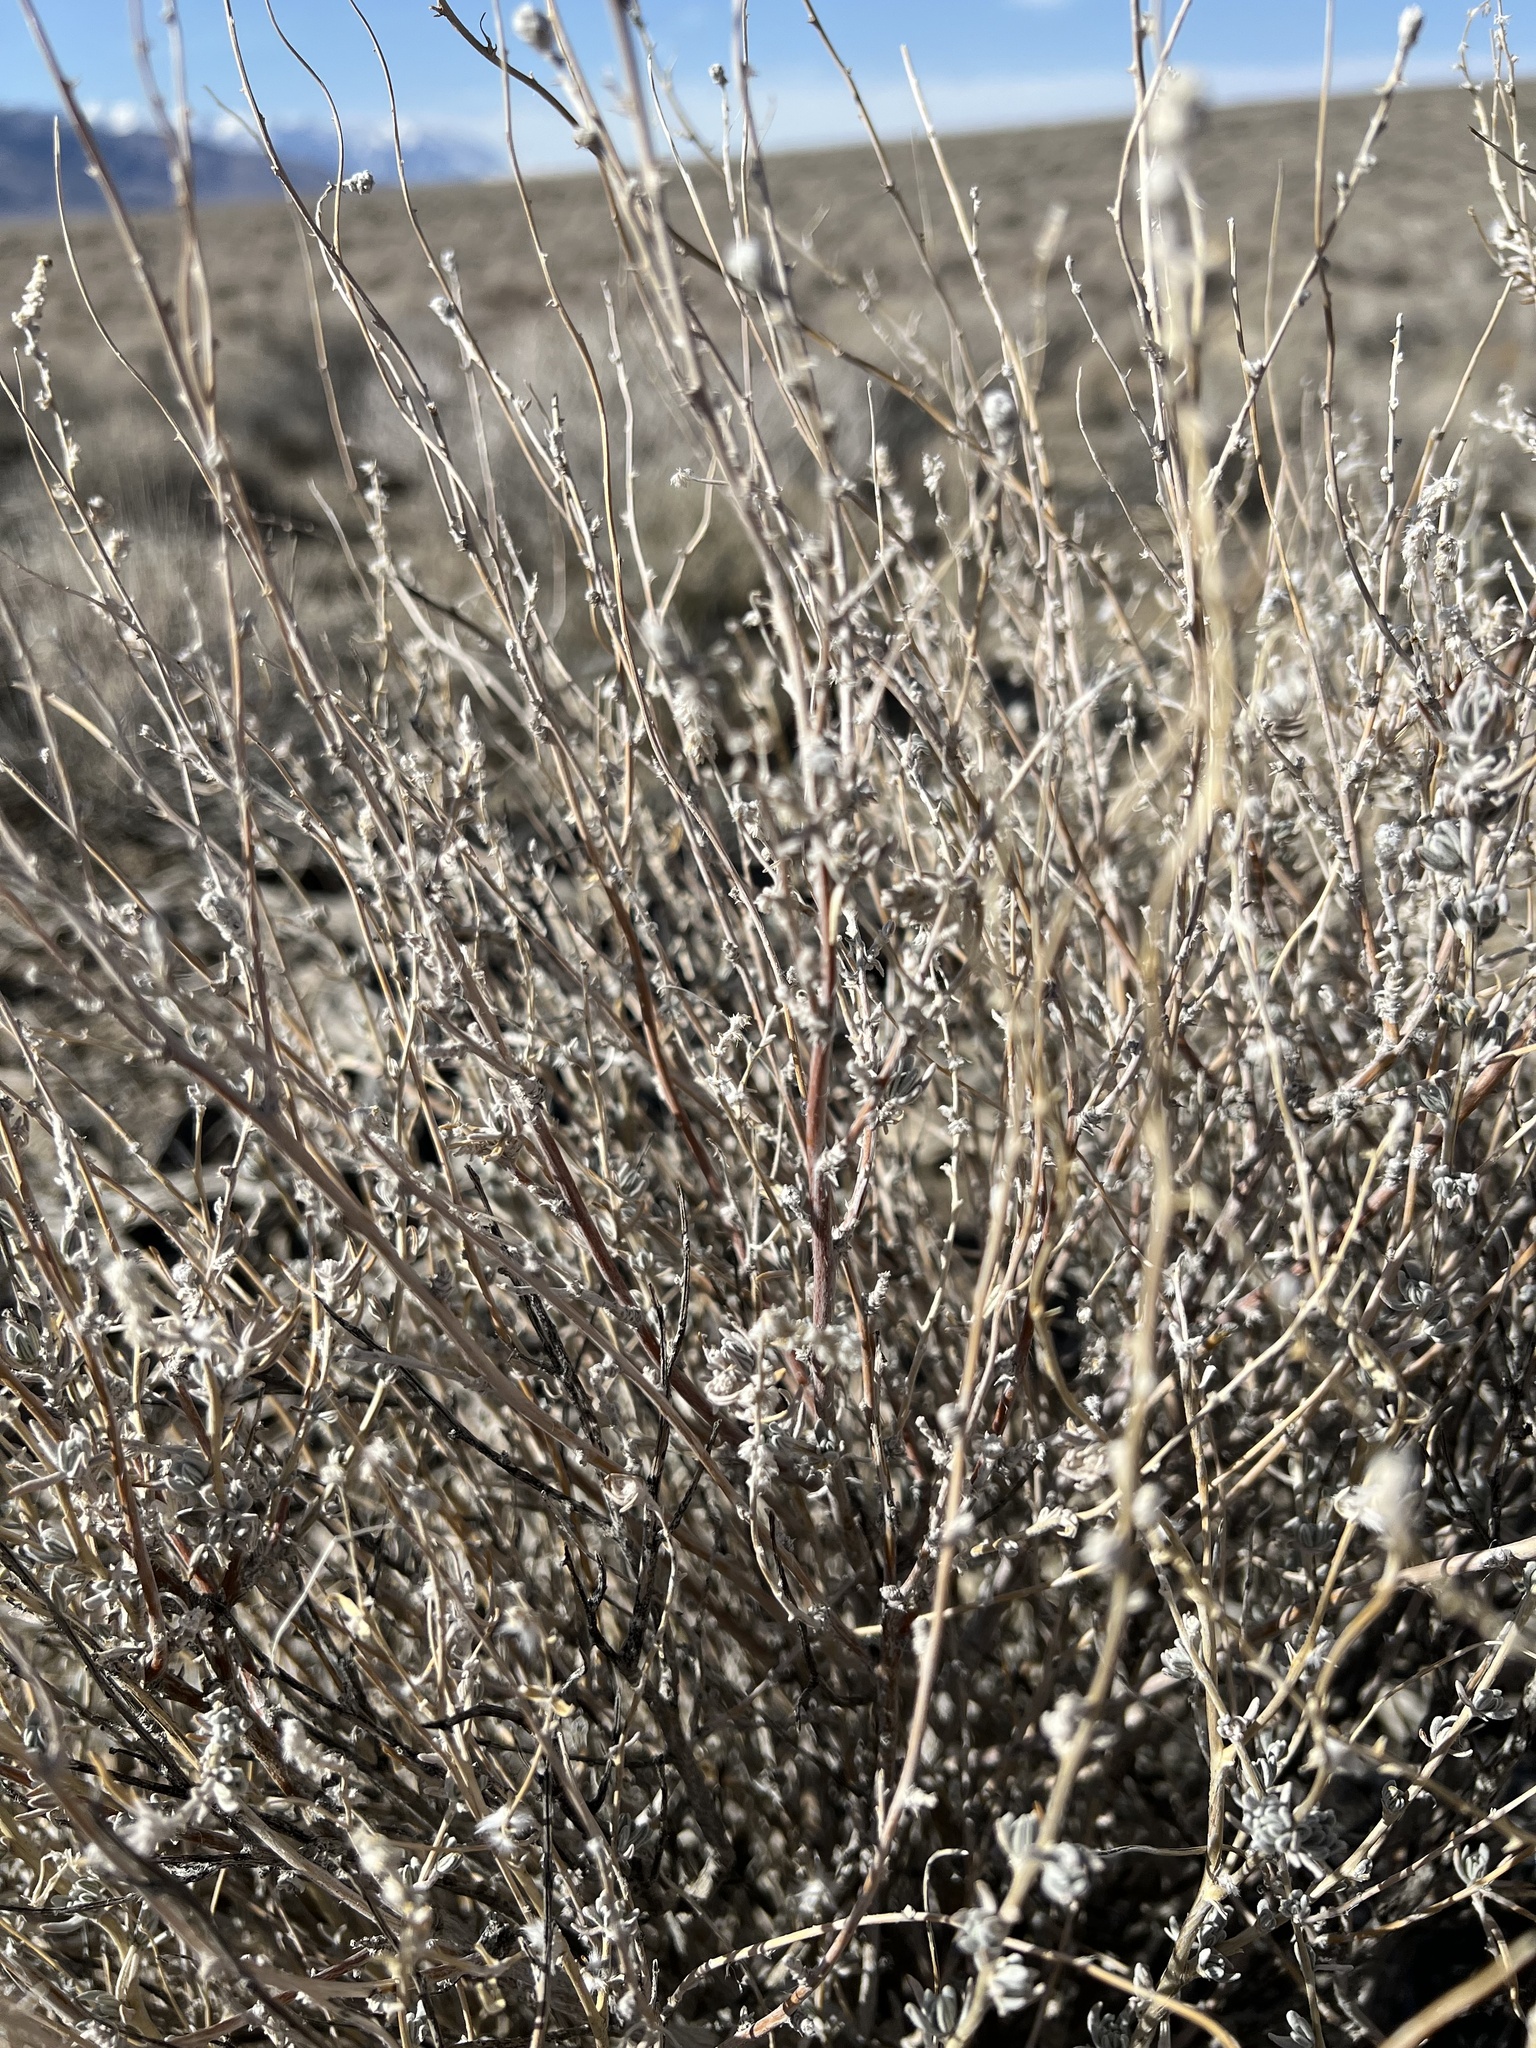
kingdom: Plantae
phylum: Tracheophyta
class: Magnoliopsida
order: Caryophyllales
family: Amaranthaceae
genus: Krascheninnikovia
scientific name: Krascheninnikovia lanata
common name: Winterfat
